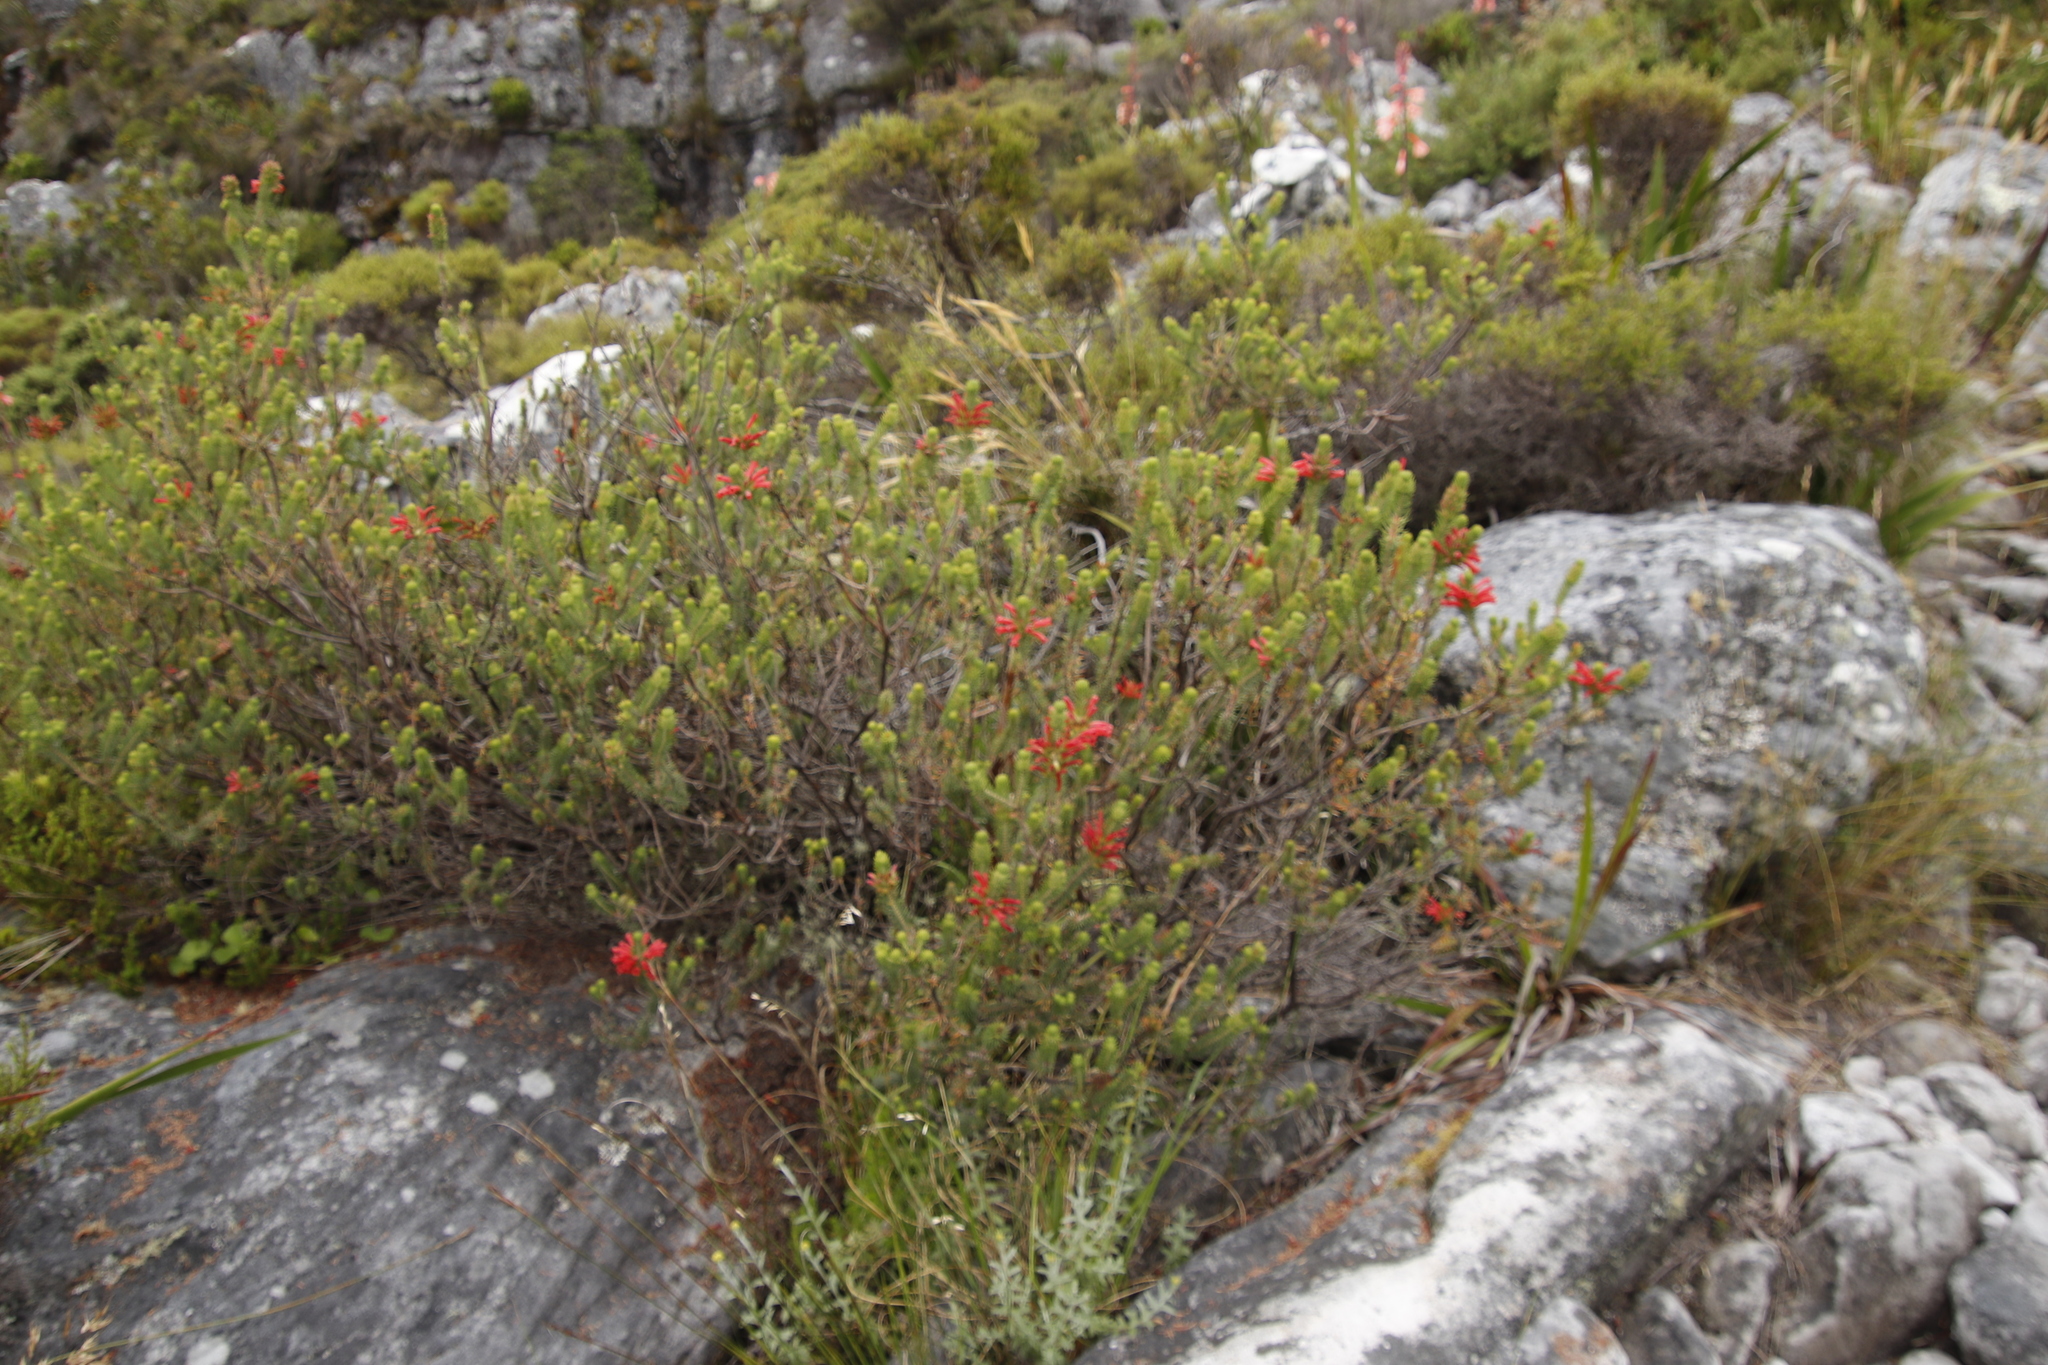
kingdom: Plantae
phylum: Tracheophyta
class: Magnoliopsida
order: Ericales
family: Ericaceae
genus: Erica
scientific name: Erica abietina
